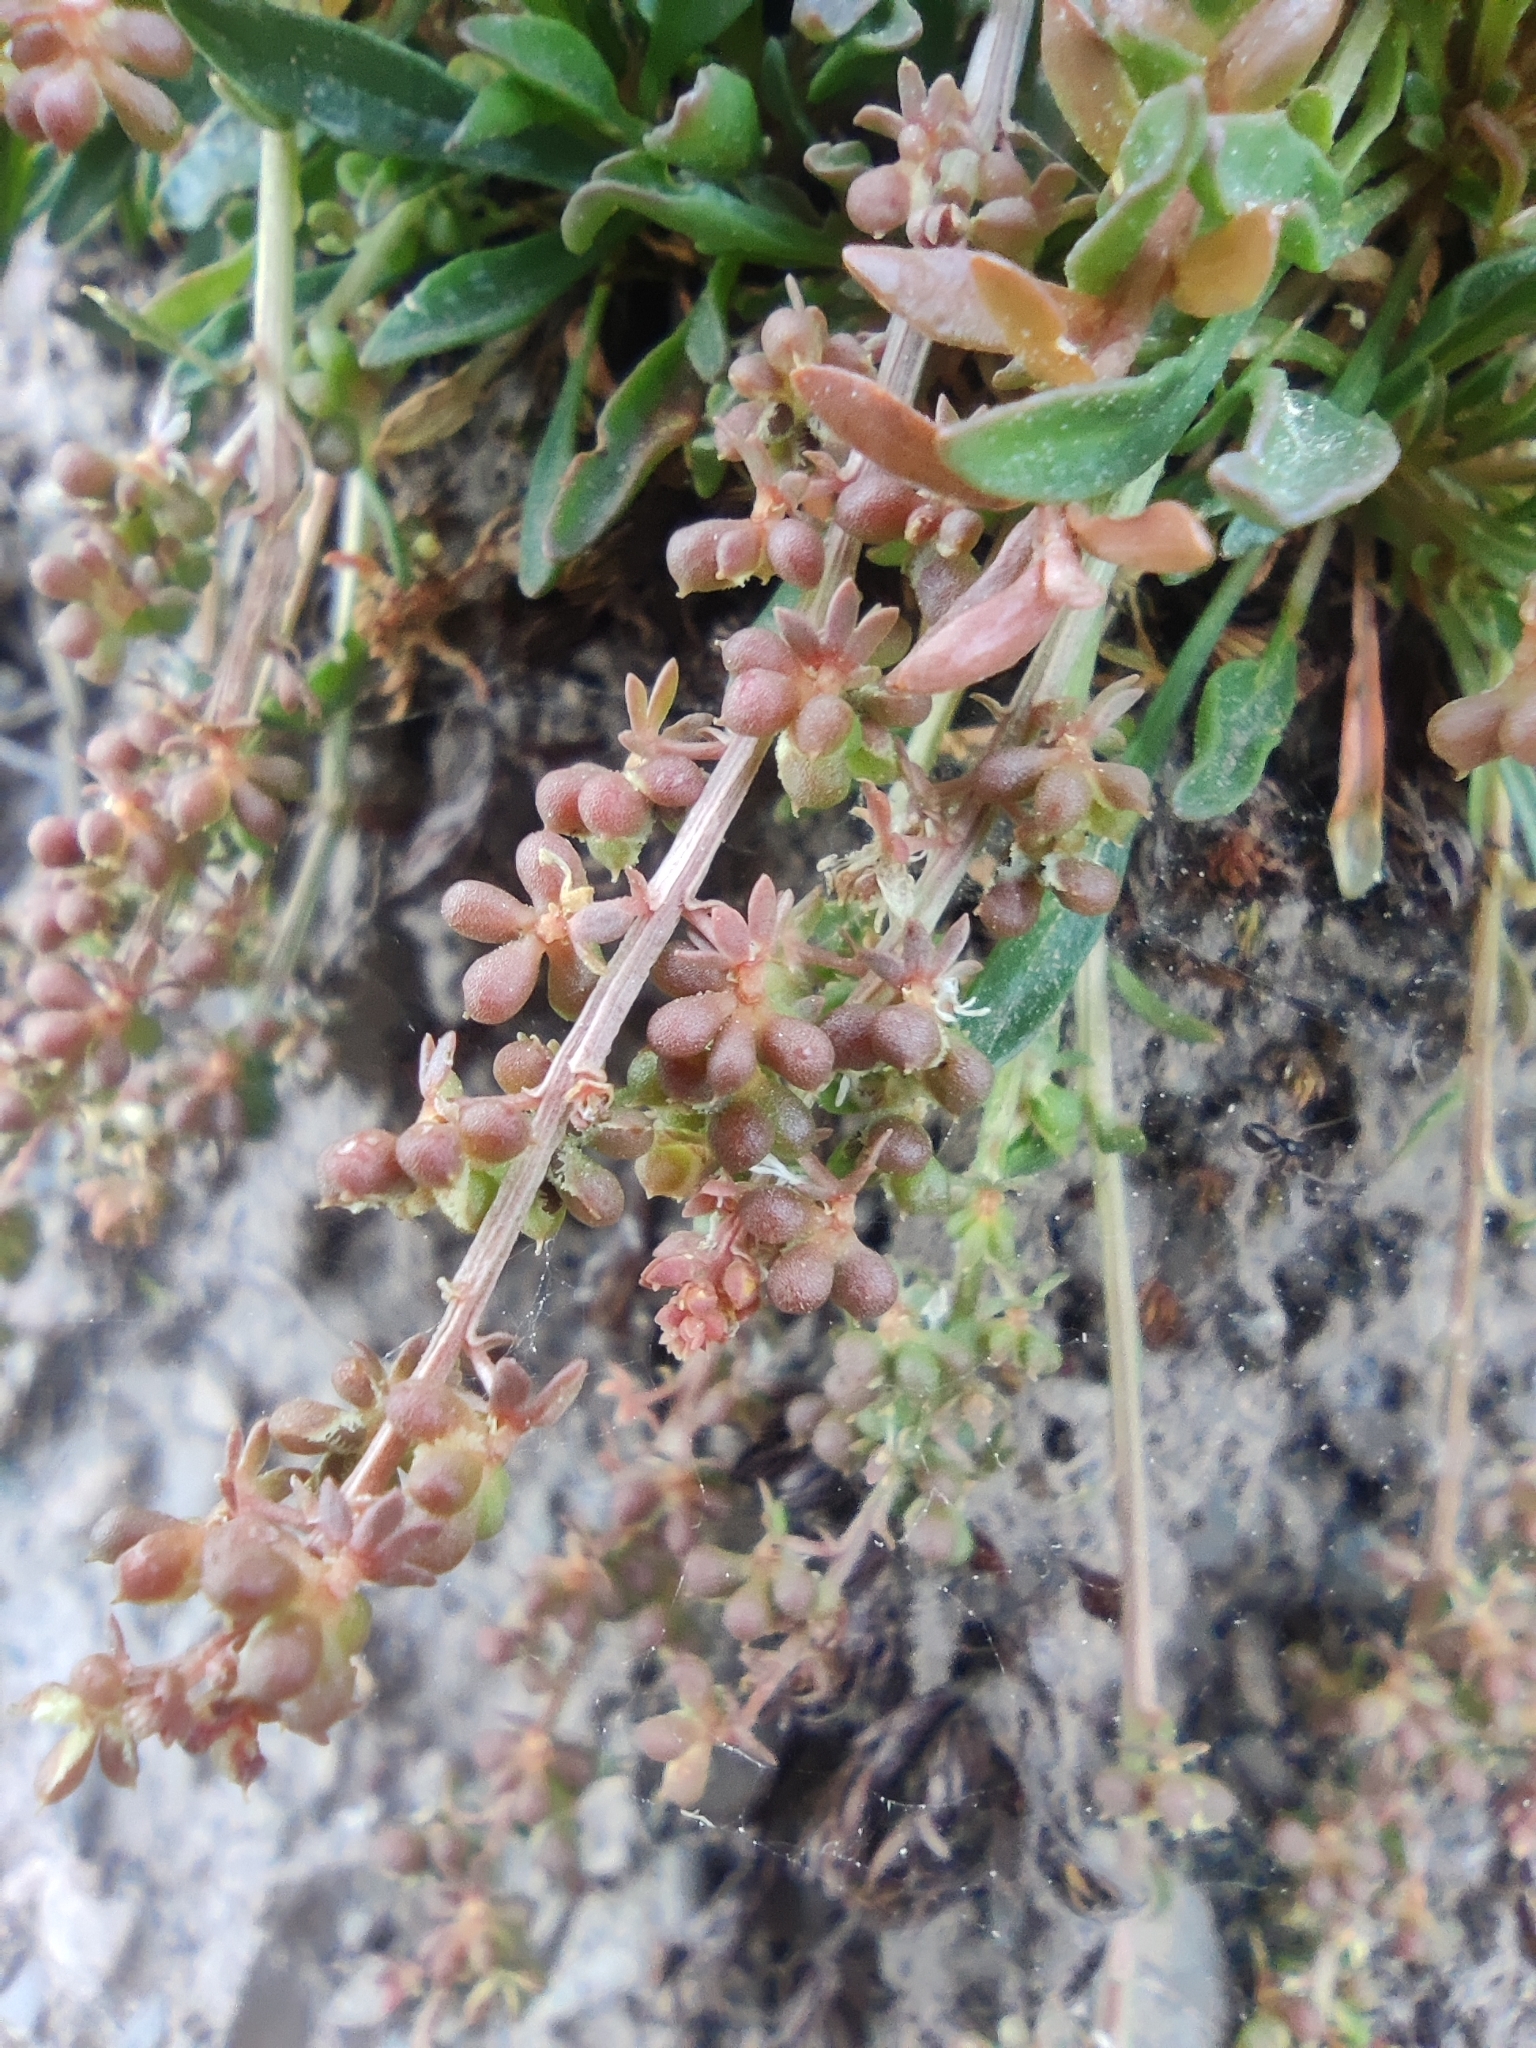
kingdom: Plantae
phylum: Tracheophyta
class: Magnoliopsida
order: Brassicales
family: Resedaceae
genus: Sesamoides
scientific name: Sesamoides interrupta
